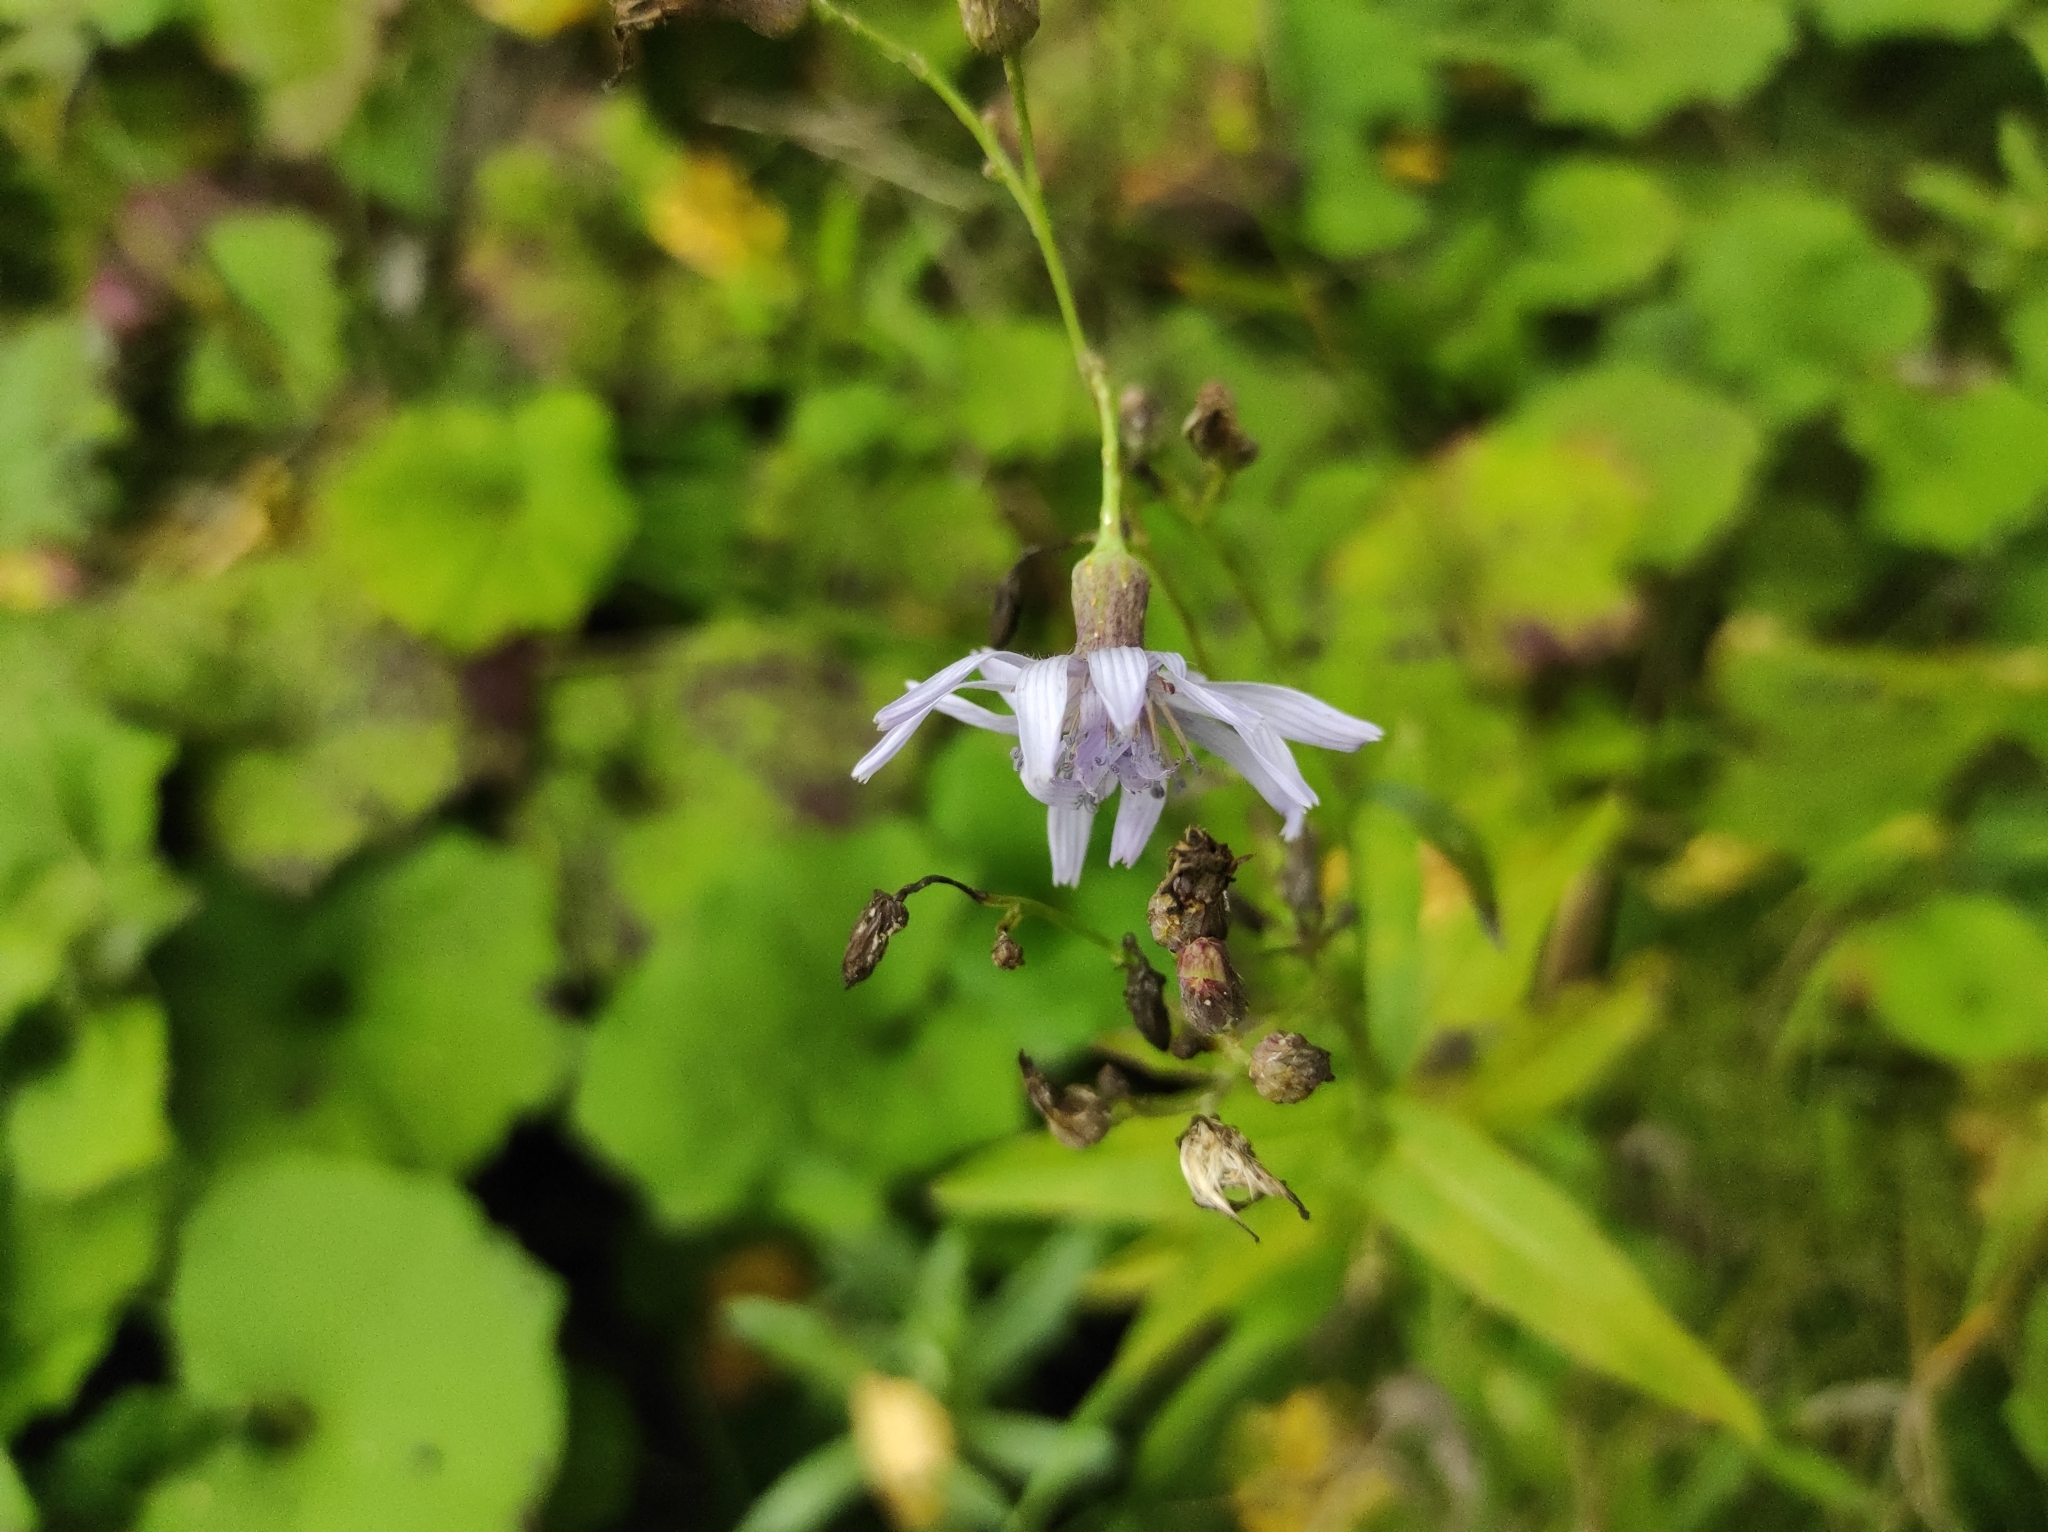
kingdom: Plantae
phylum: Tracheophyta
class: Magnoliopsida
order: Asterales
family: Asteraceae
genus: Lactuca
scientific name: Lactuca sibirica
